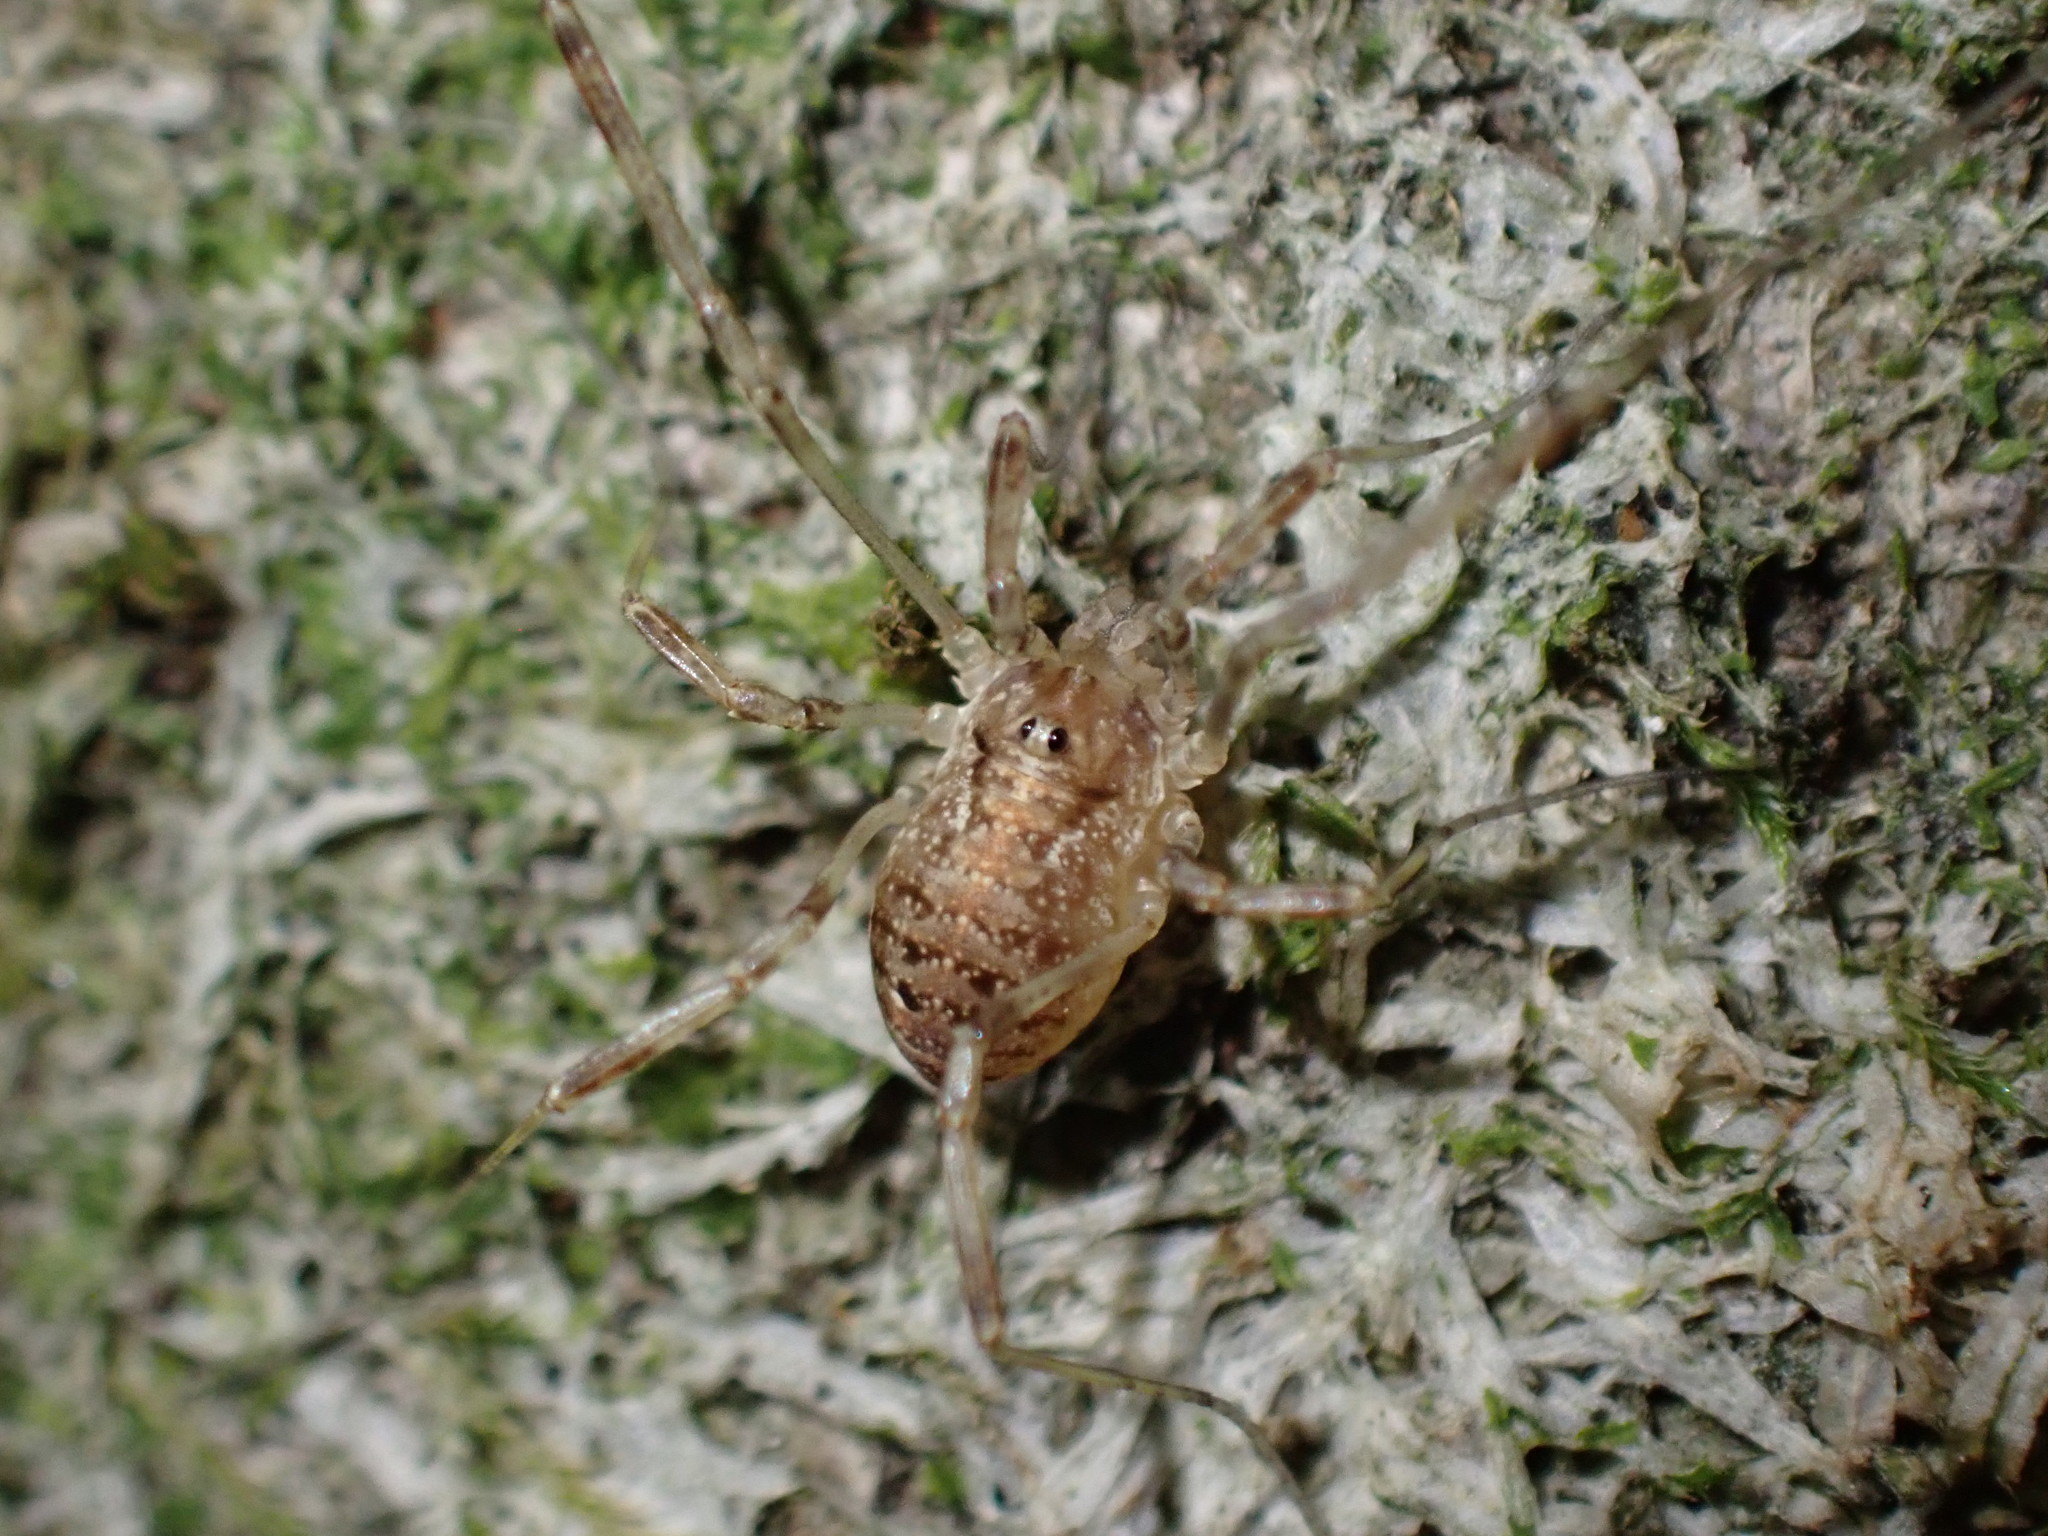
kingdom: Animalia
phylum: Arthropoda
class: Arachnida
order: Opiliones
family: Phalangiidae
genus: Paroligolophus
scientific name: Paroligolophus agrestis
